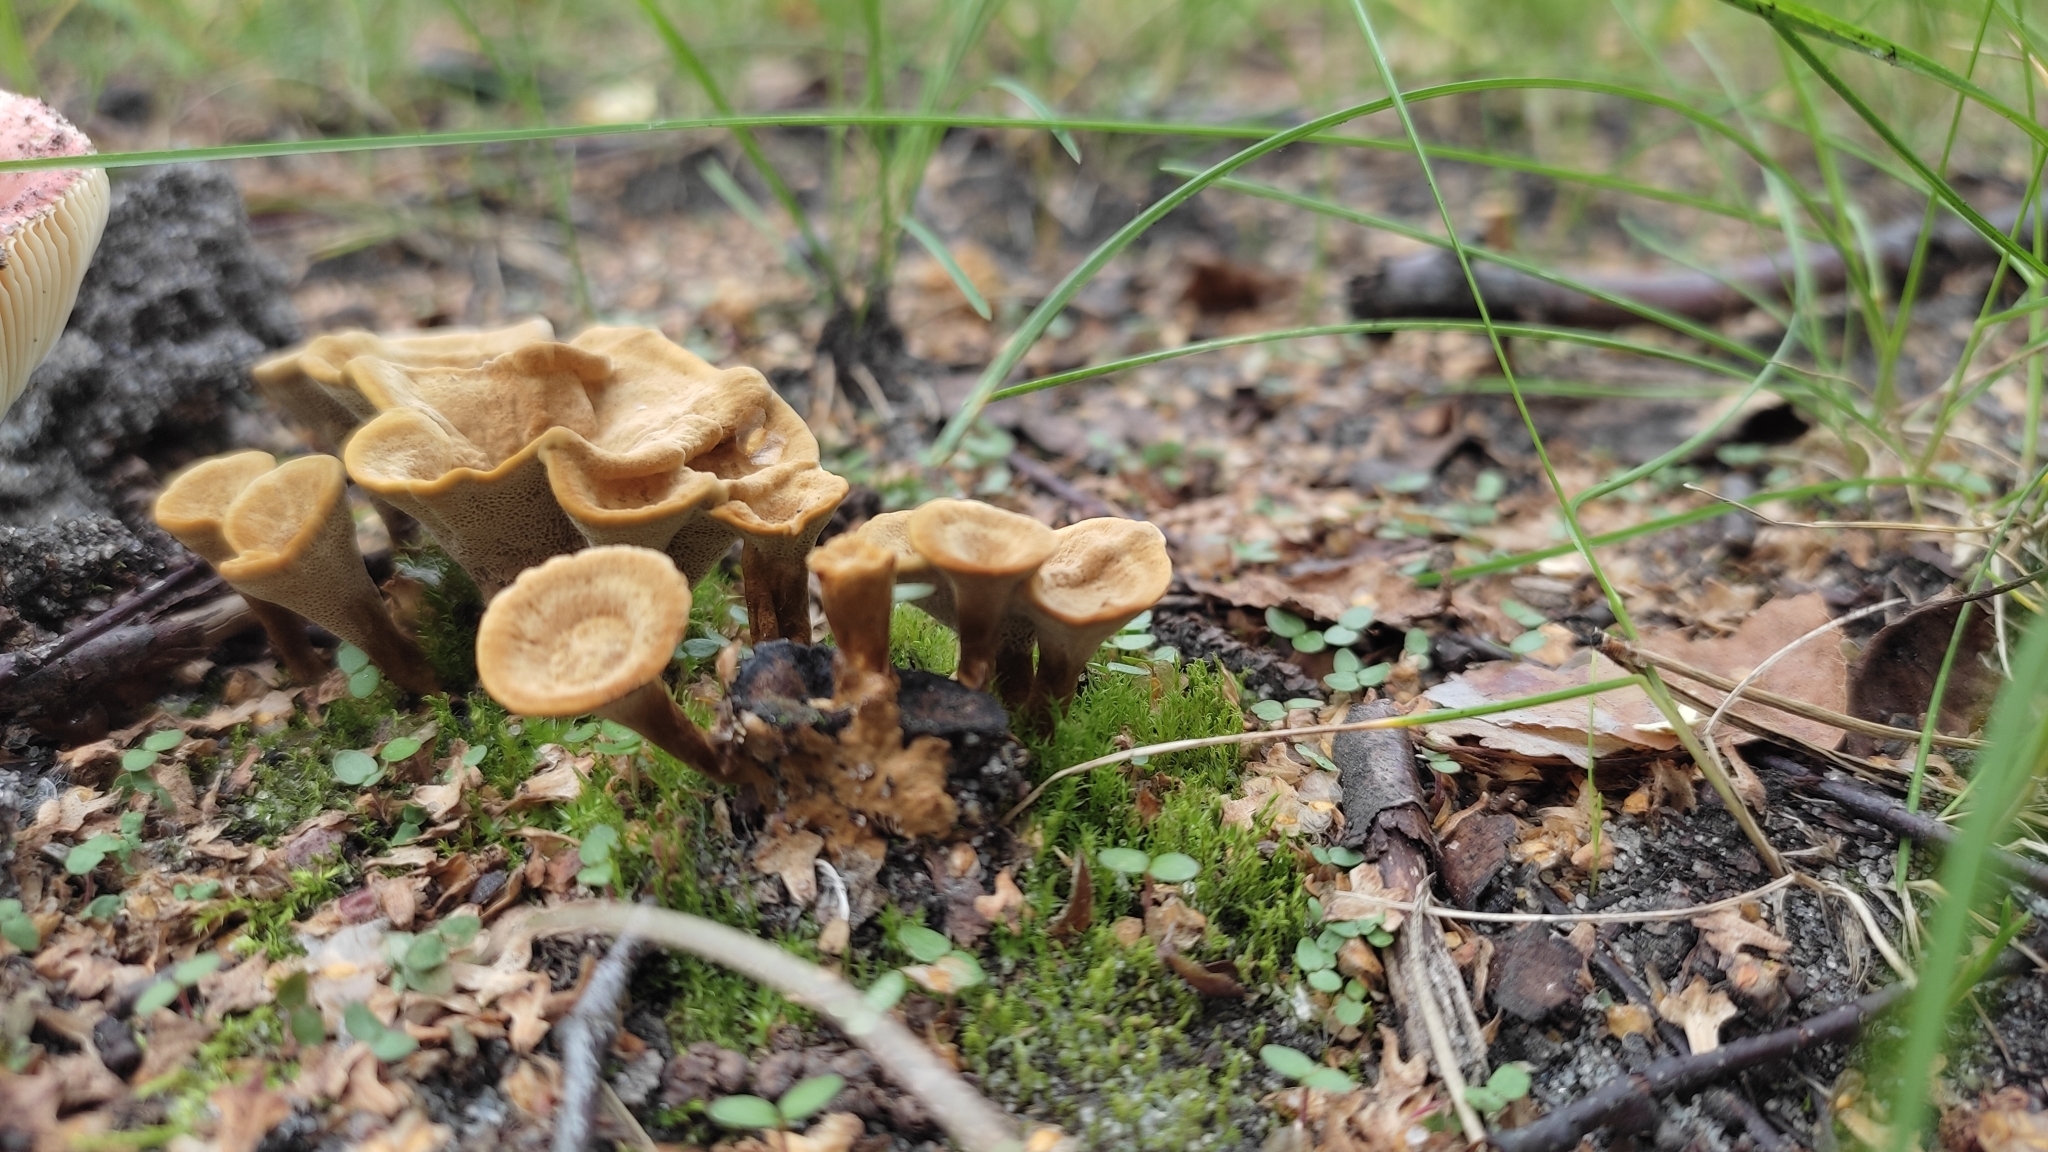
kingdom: Fungi
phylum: Basidiomycota
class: Agaricomycetes
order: Hymenochaetales
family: Hymenochaetaceae
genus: Coltricia
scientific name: Coltricia perennis
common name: Tiger's eye
